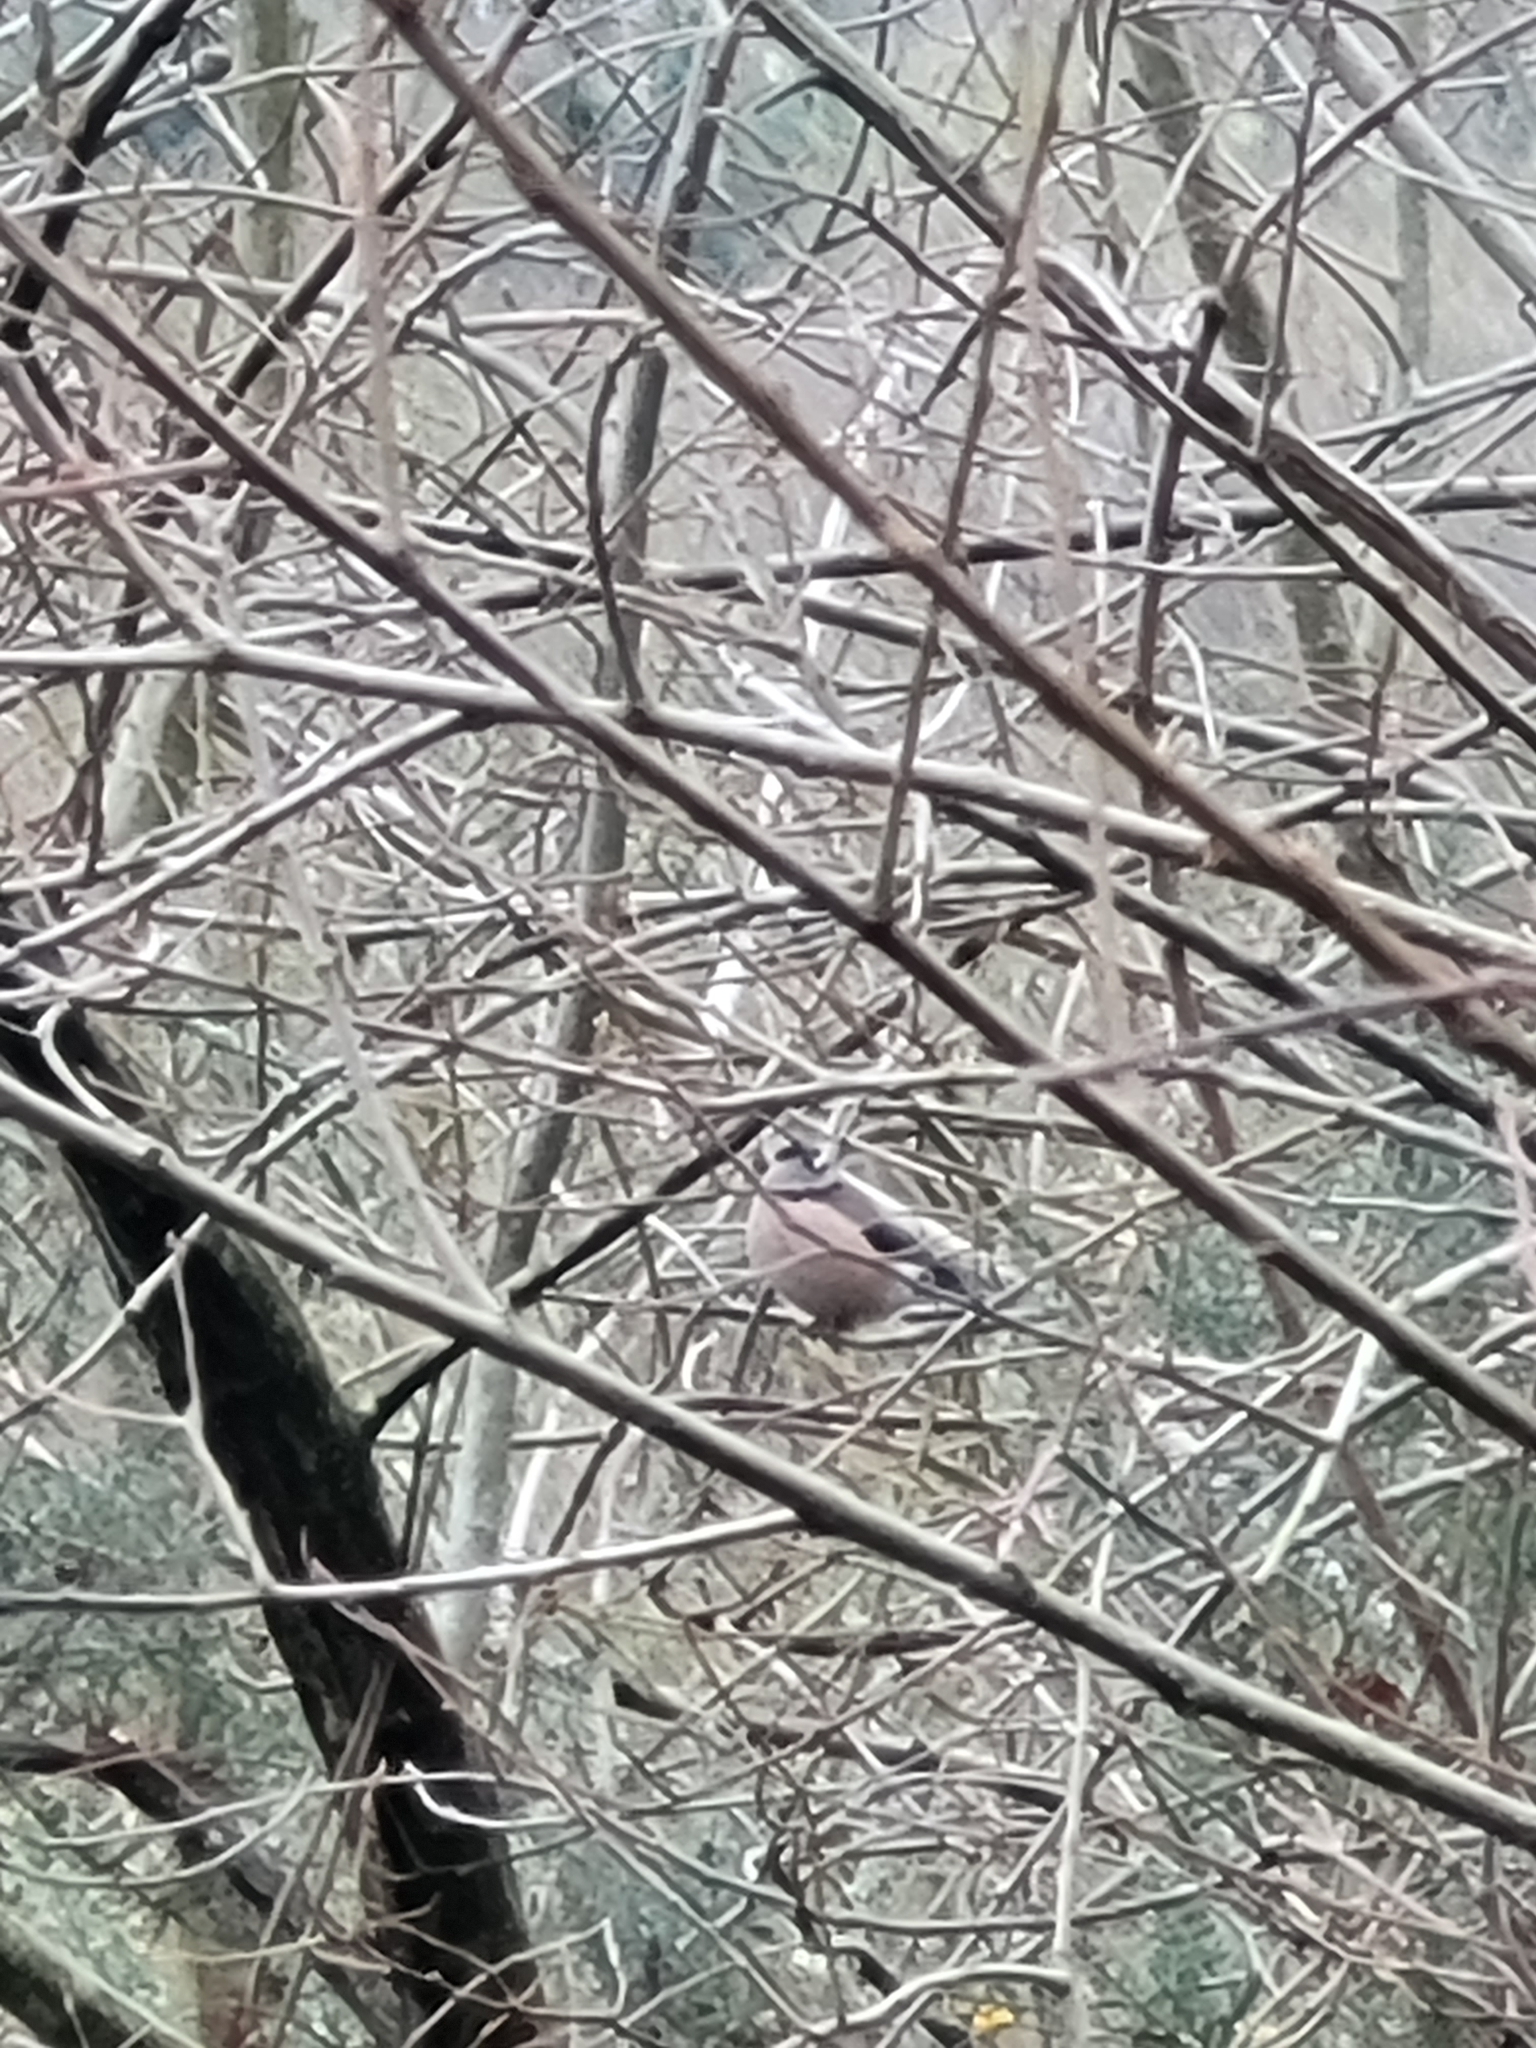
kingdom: Animalia
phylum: Chordata
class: Aves
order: Passeriformes
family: Fringillidae
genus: Pyrrhula
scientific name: Pyrrhula pyrrhula
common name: Eurasian bullfinch
